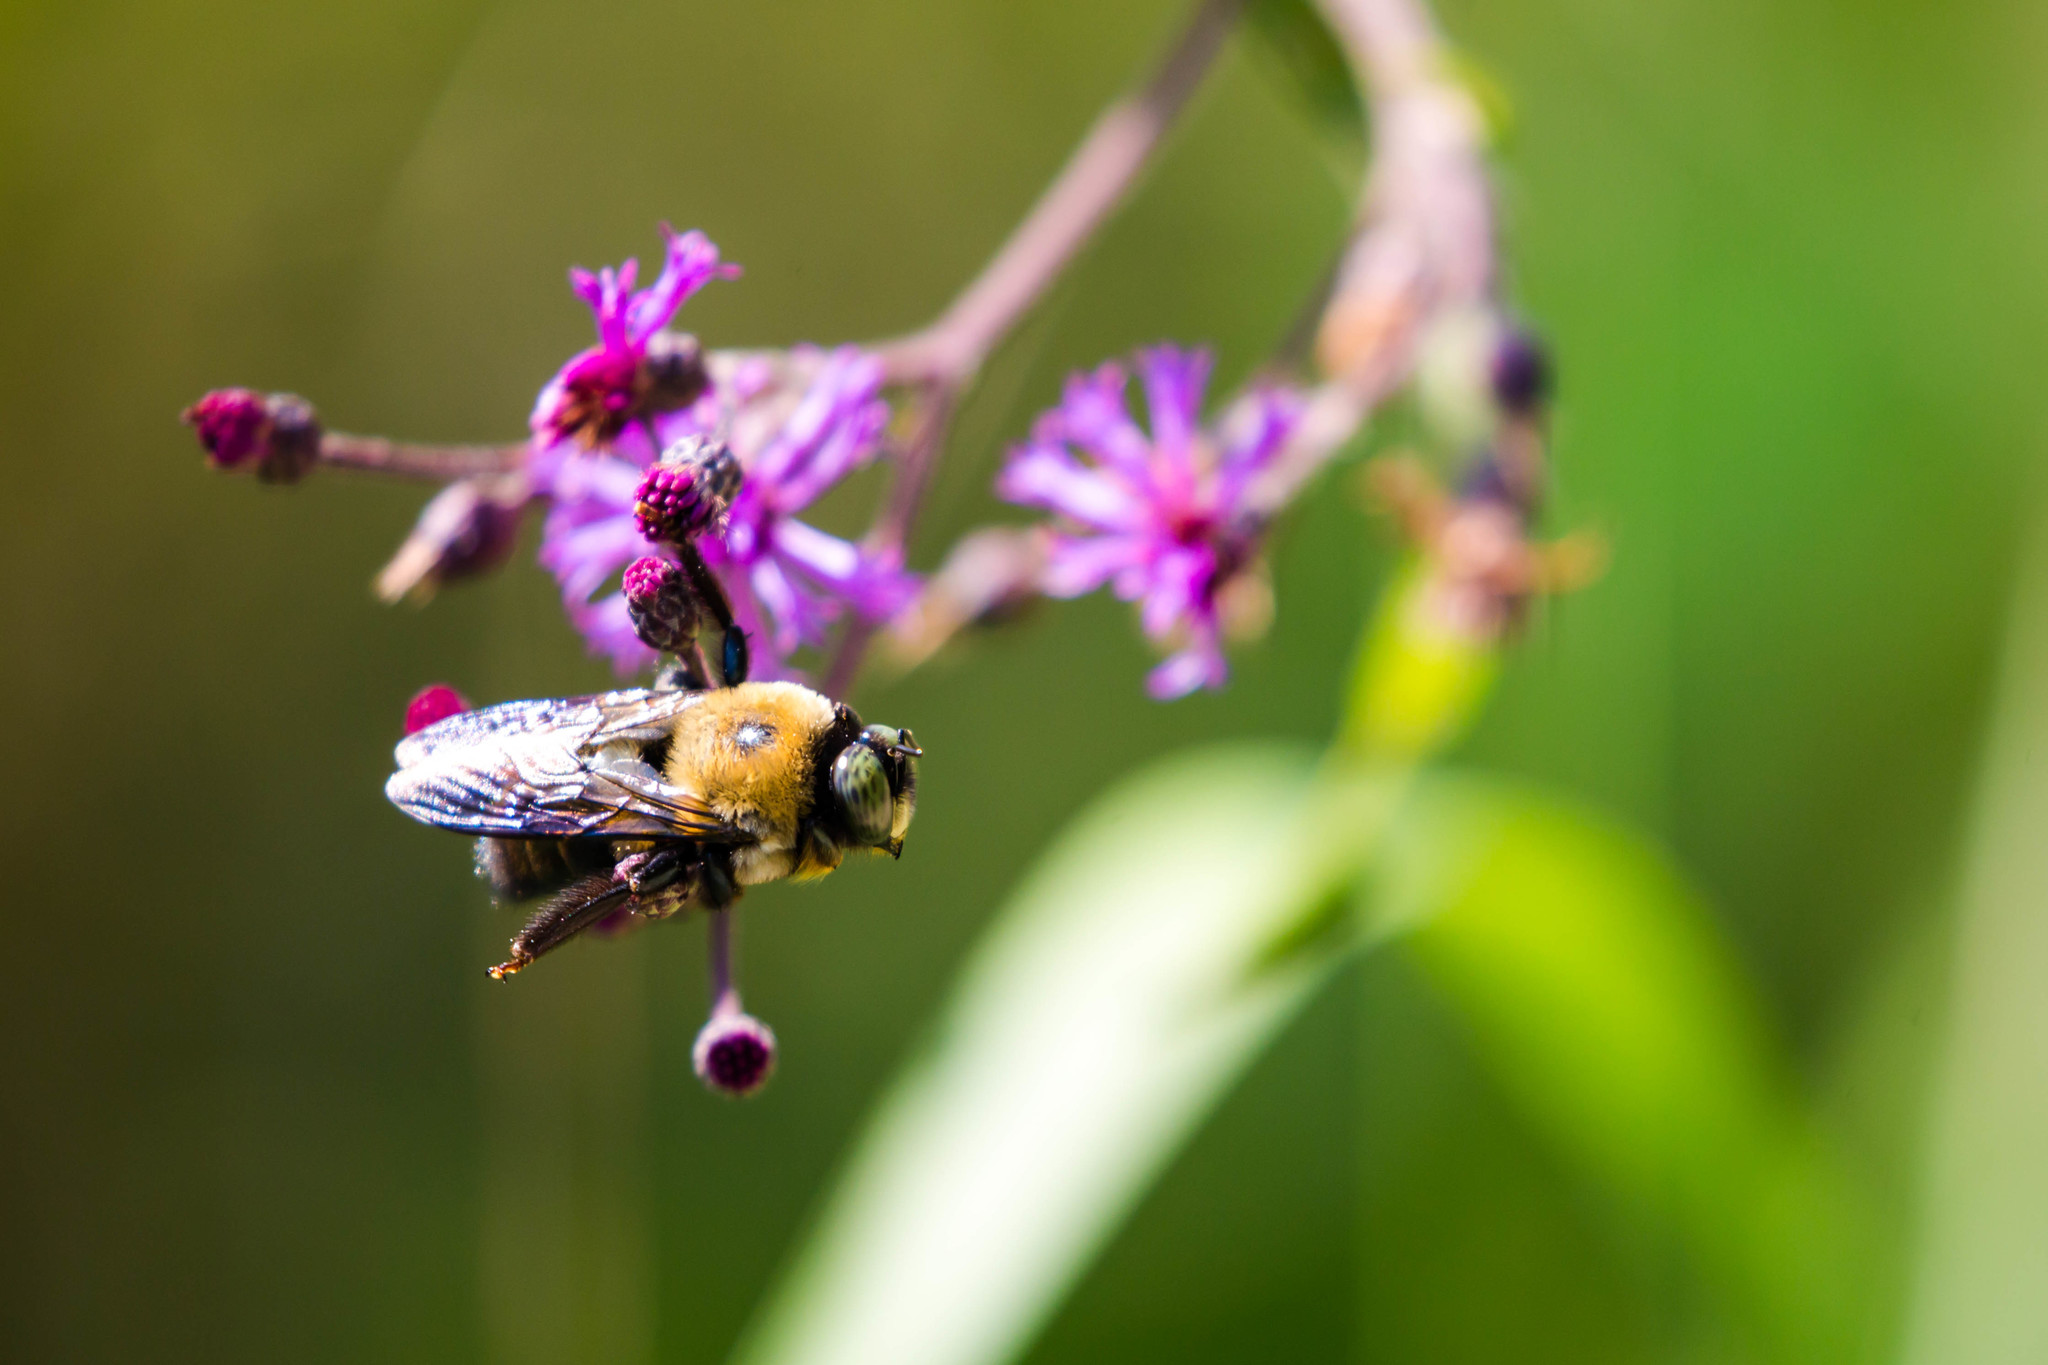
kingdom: Animalia
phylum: Arthropoda
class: Insecta
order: Hymenoptera
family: Apidae
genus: Xylocopa
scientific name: Xylocopa virginica
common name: Carpenter bee
